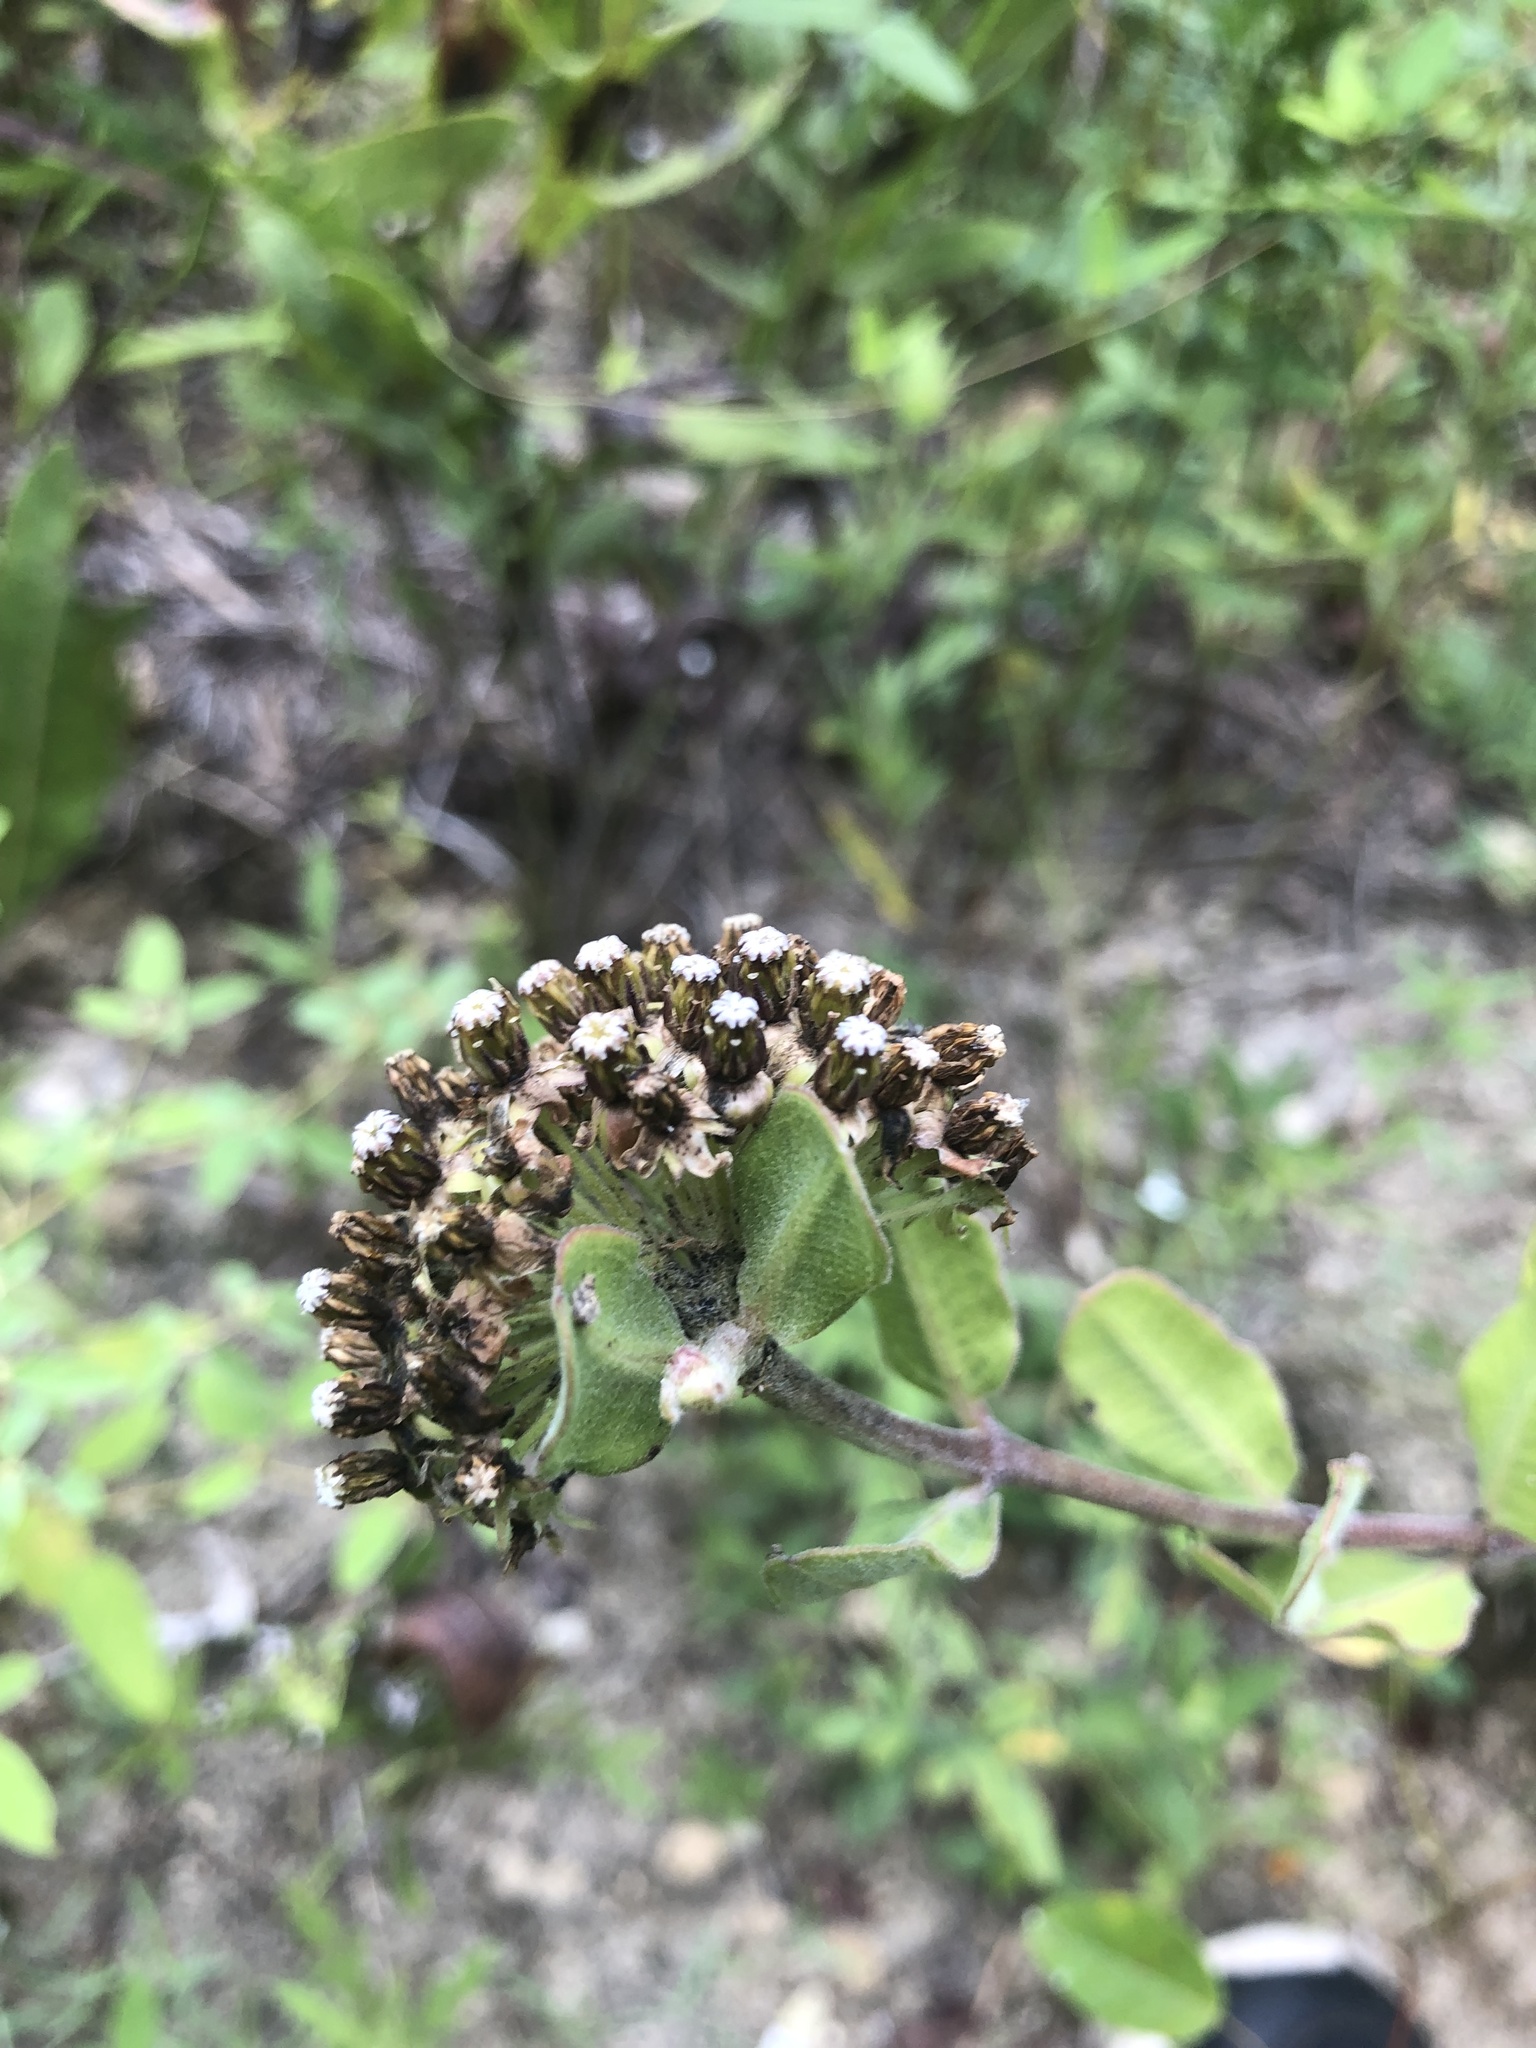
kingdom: Plantae
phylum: Tracheophyta
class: Magnoliopsida
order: Gentianales
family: Apocynaceae
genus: Asclepias
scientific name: Asclepias viridiflora
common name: Green comet milkweed
